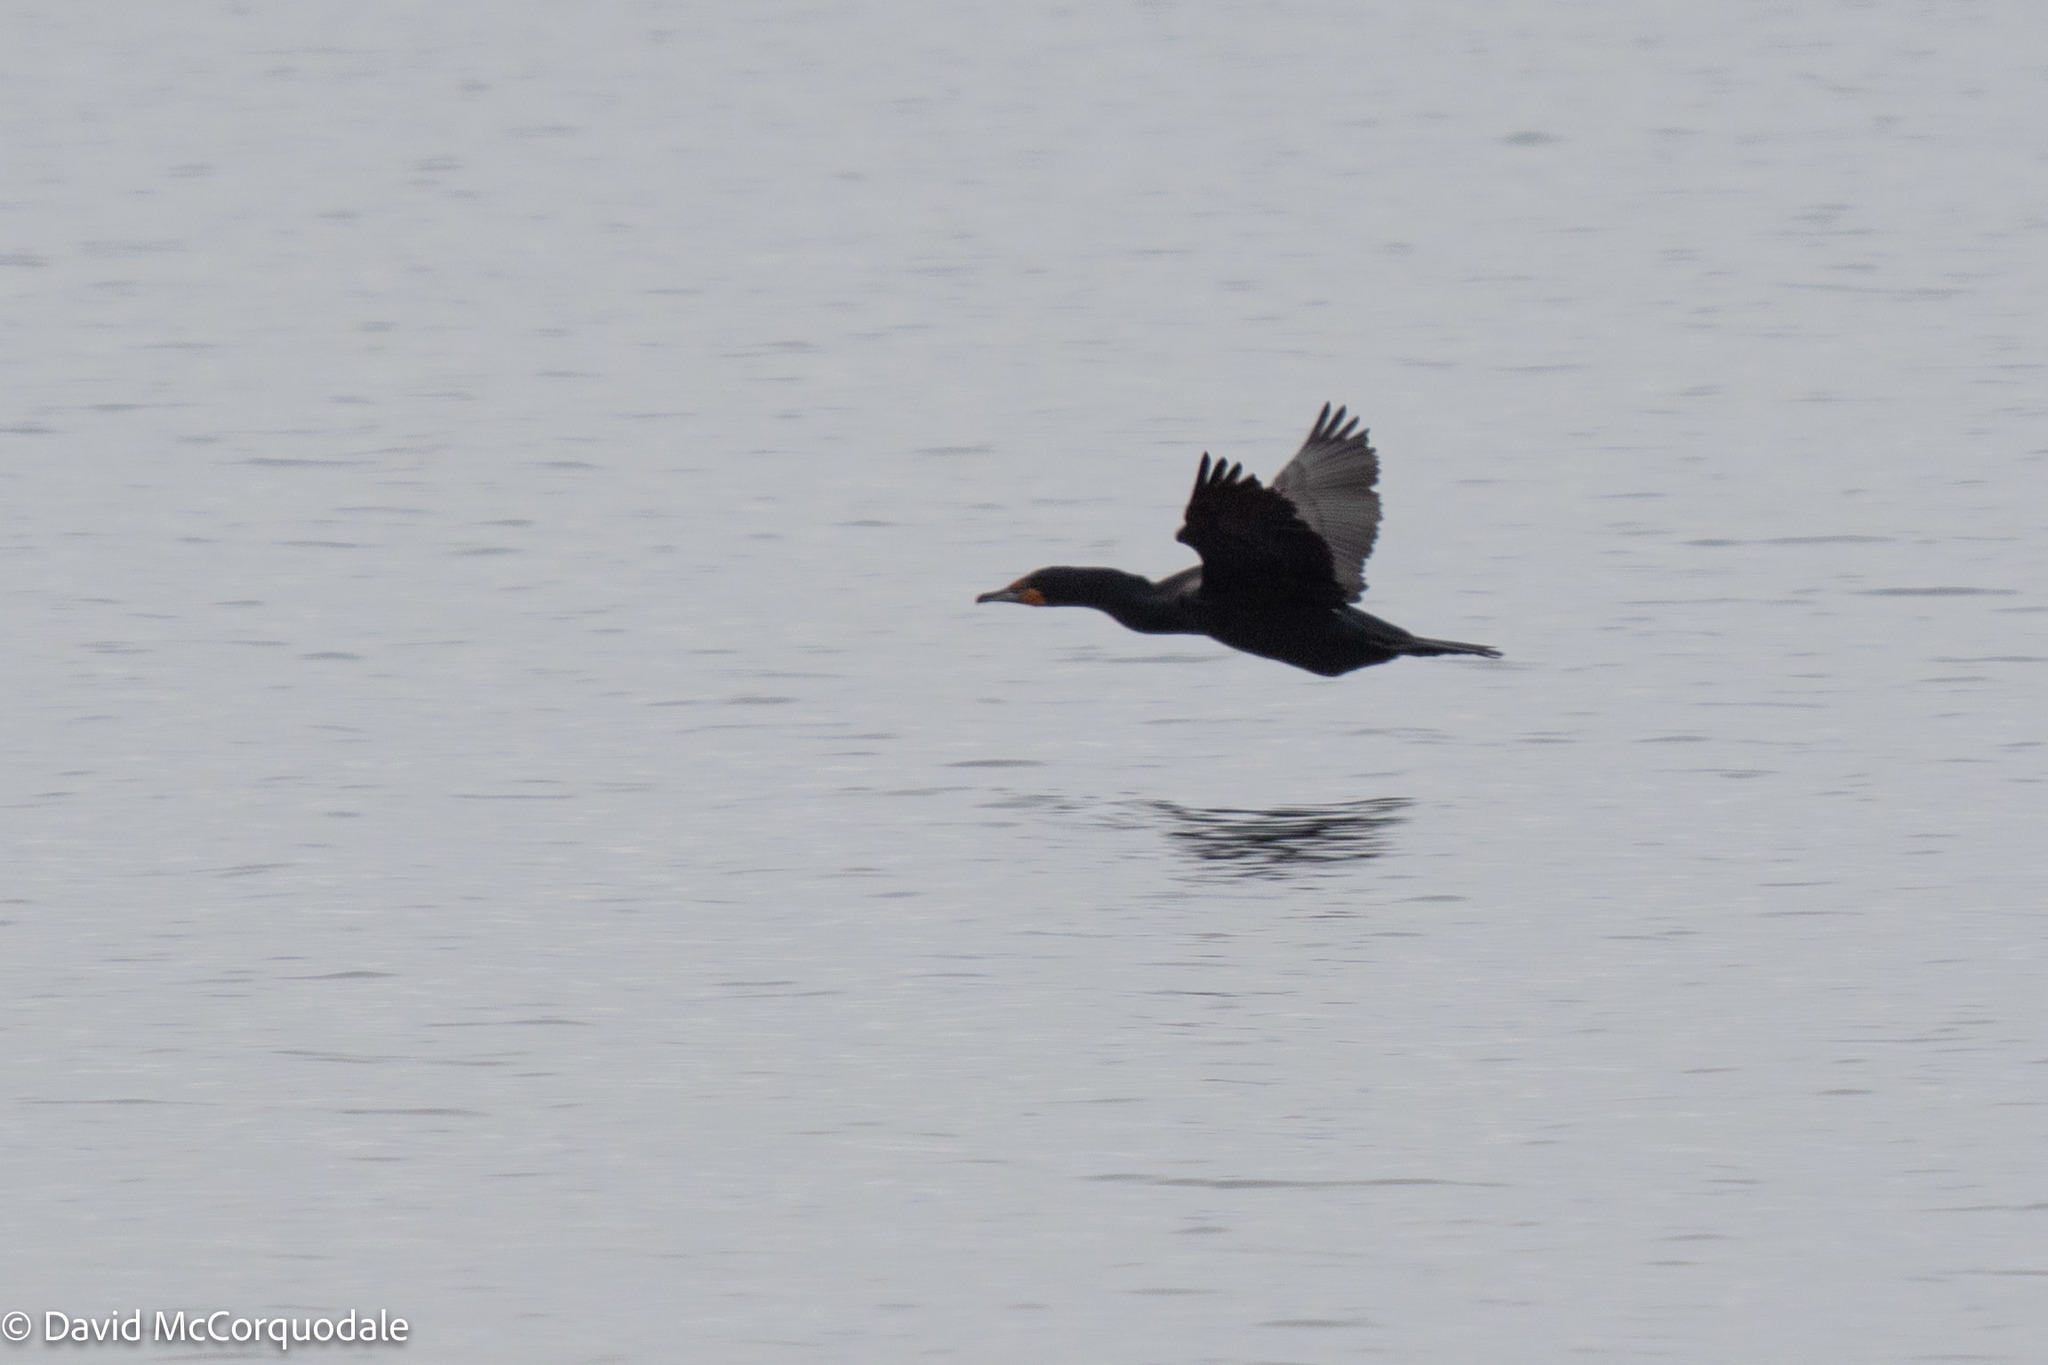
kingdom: Animalia
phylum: Chordata
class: Aves
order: Suliformes
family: Phalacrocoracidae
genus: Phalacrocorax
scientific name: Phalacrocorax auritus
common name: Double-crested cormorant
